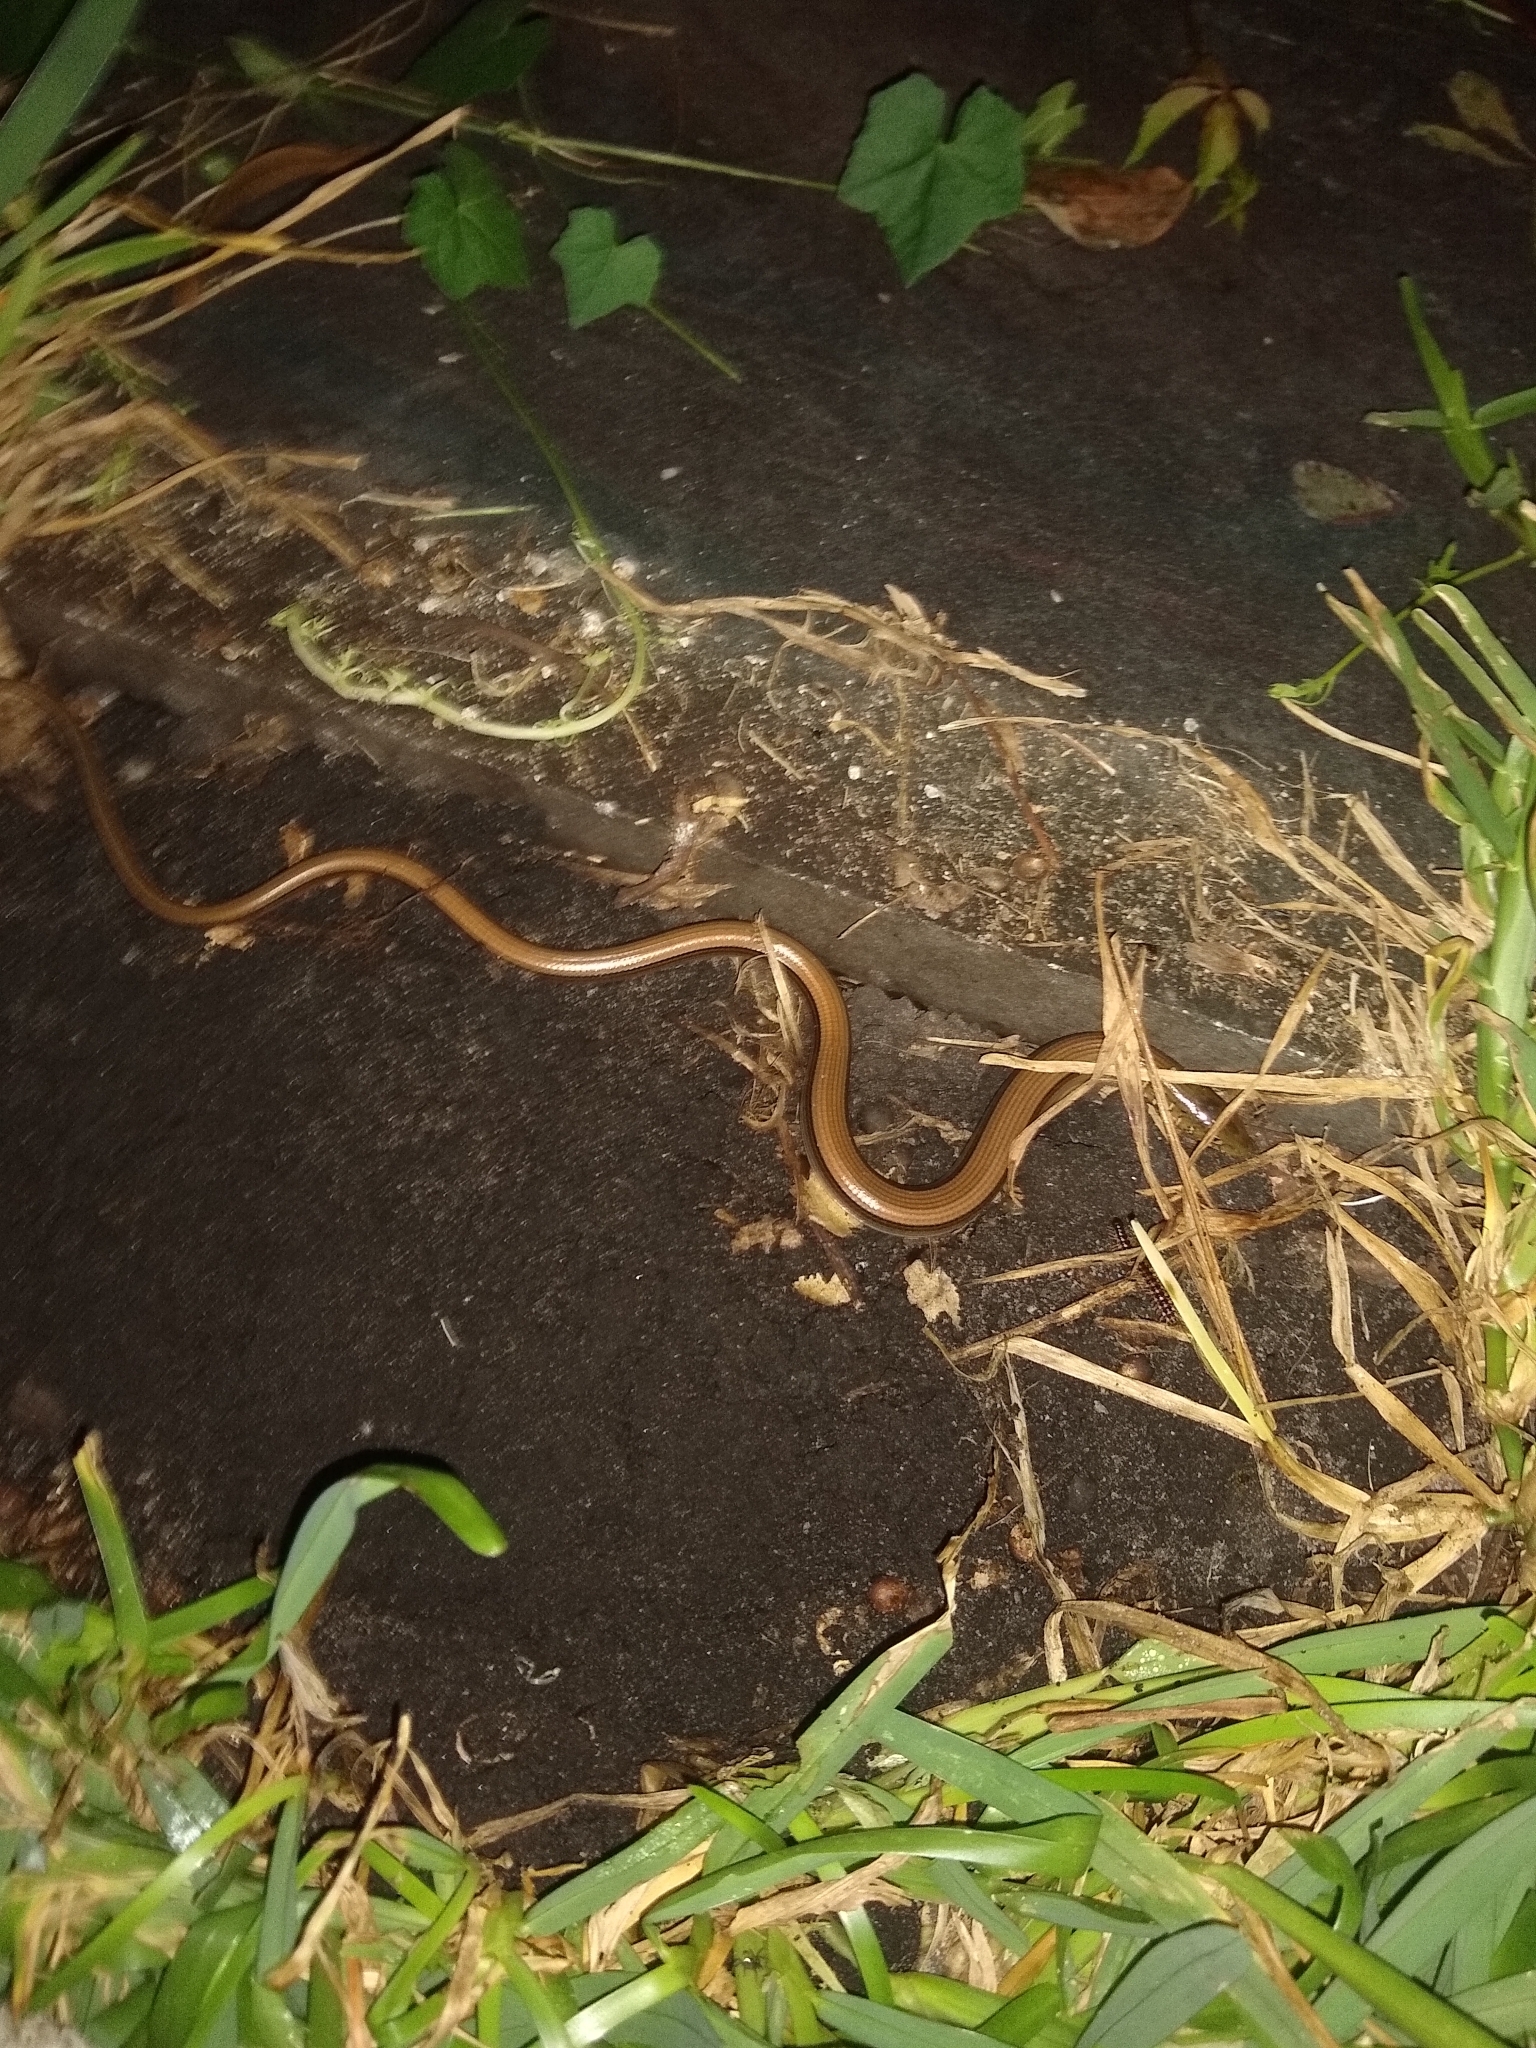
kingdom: Animalia
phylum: Chordata
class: Squamata
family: Anguidae
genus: Ophisaurus
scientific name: Ophisaurus ventralis
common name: Eastern glass lizard
